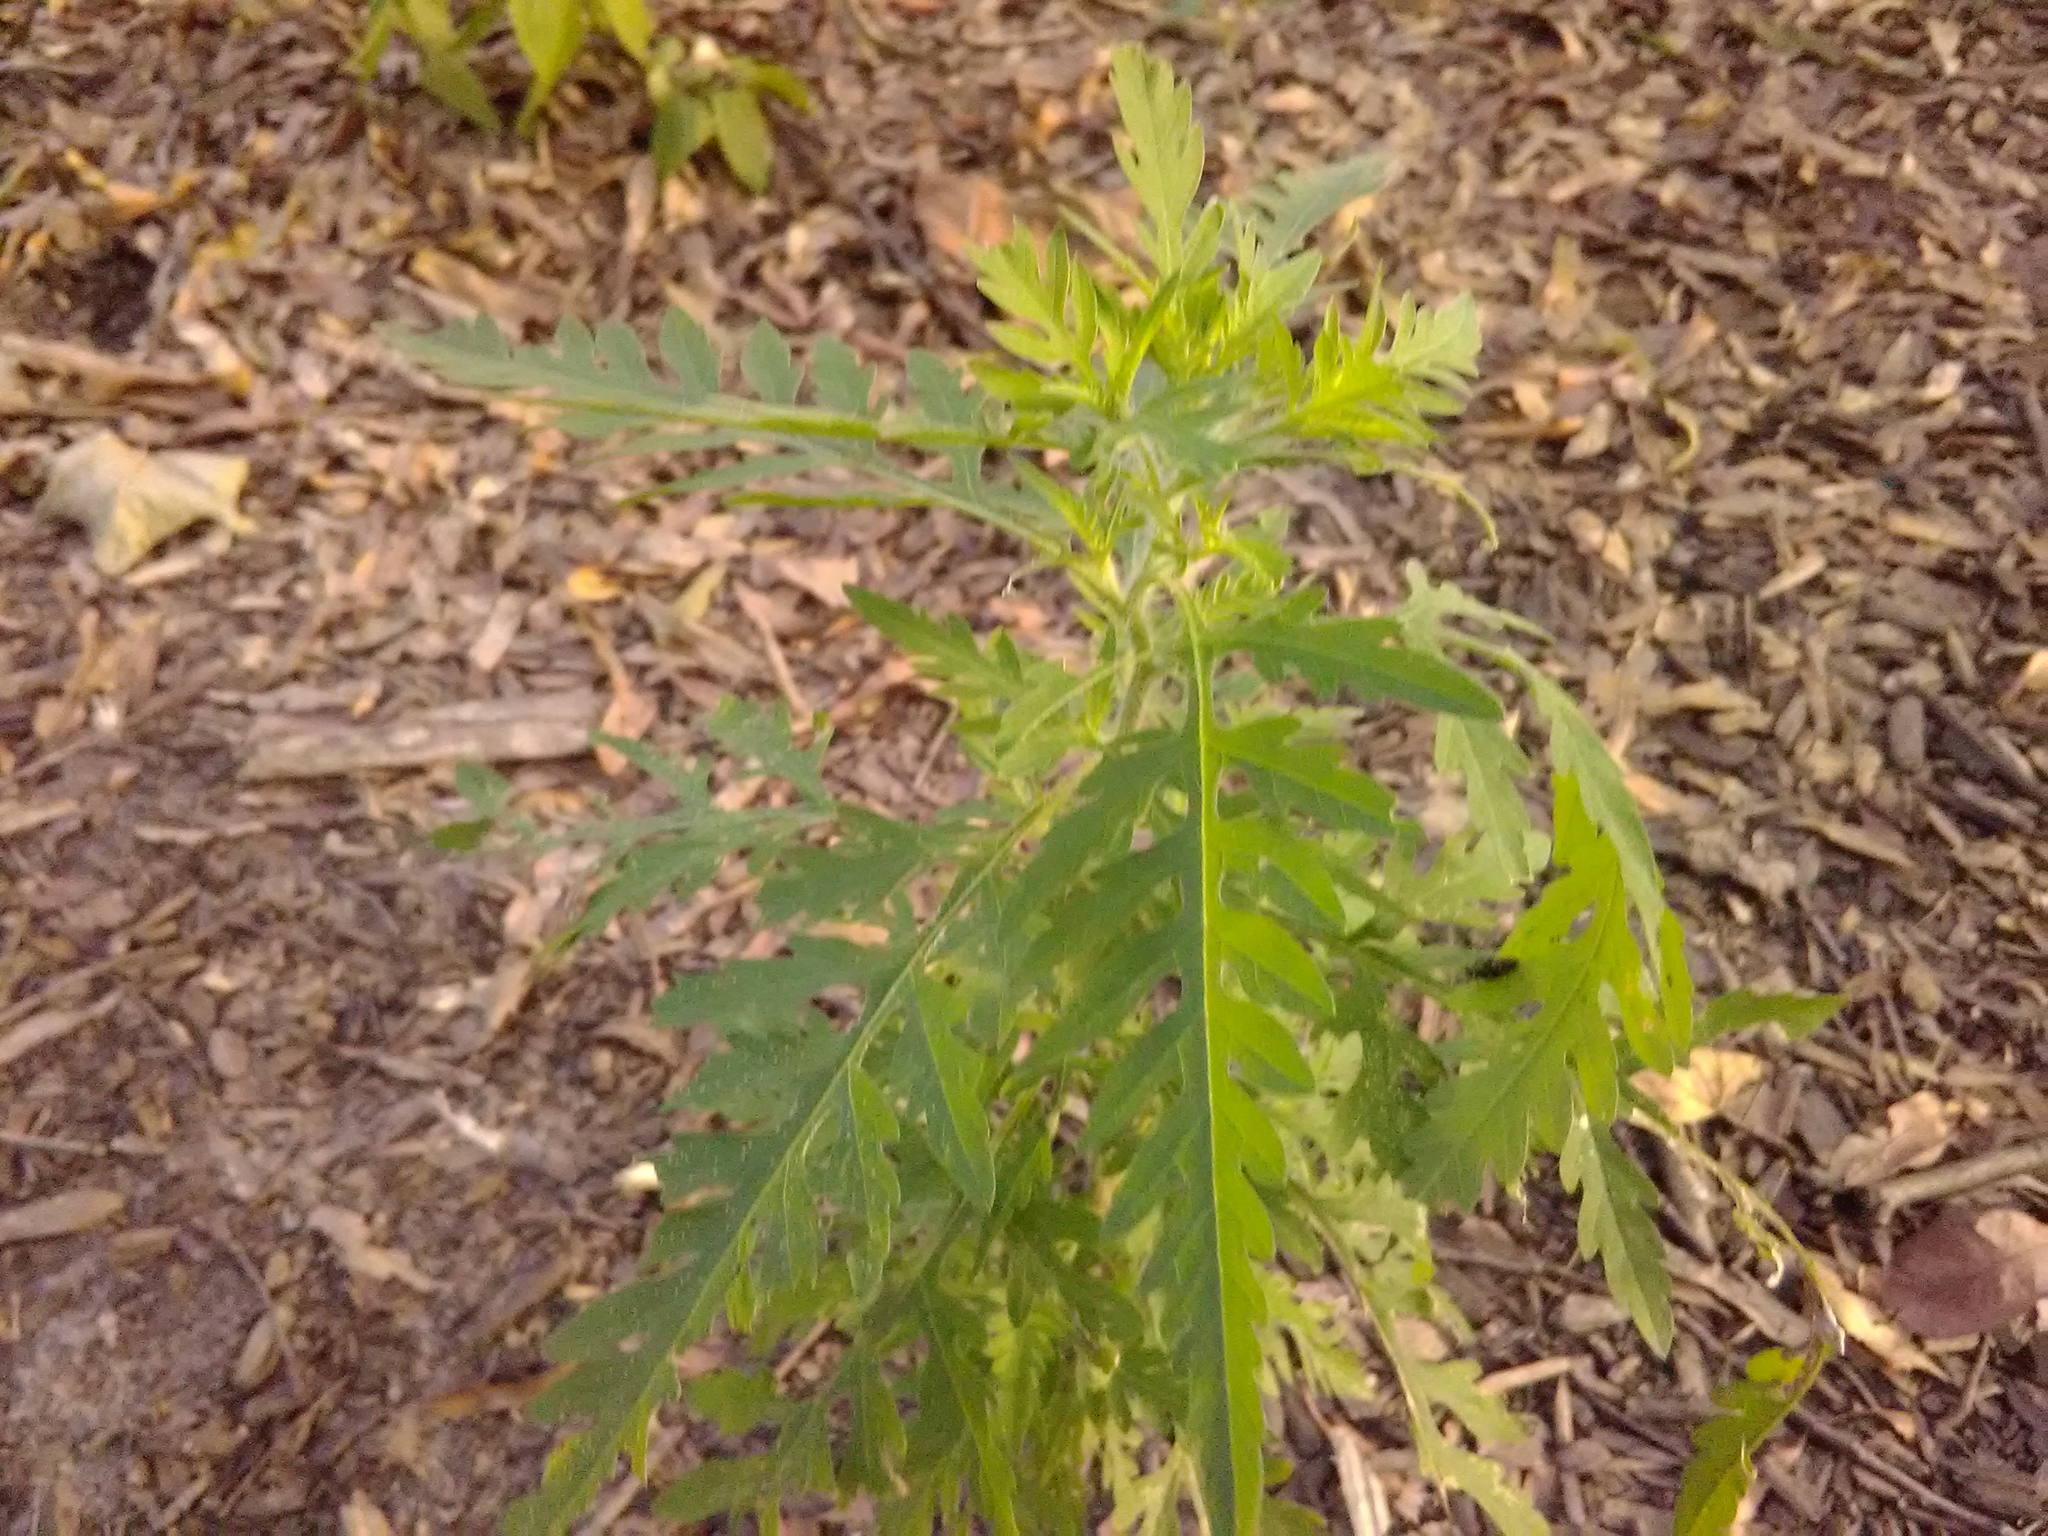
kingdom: Plantae
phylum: Tracheophyta
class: Magnoliopsida
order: Asterales
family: Asteraceae
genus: Ambrosia
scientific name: Ambrosia artemisiifolia
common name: Annual ragweed
